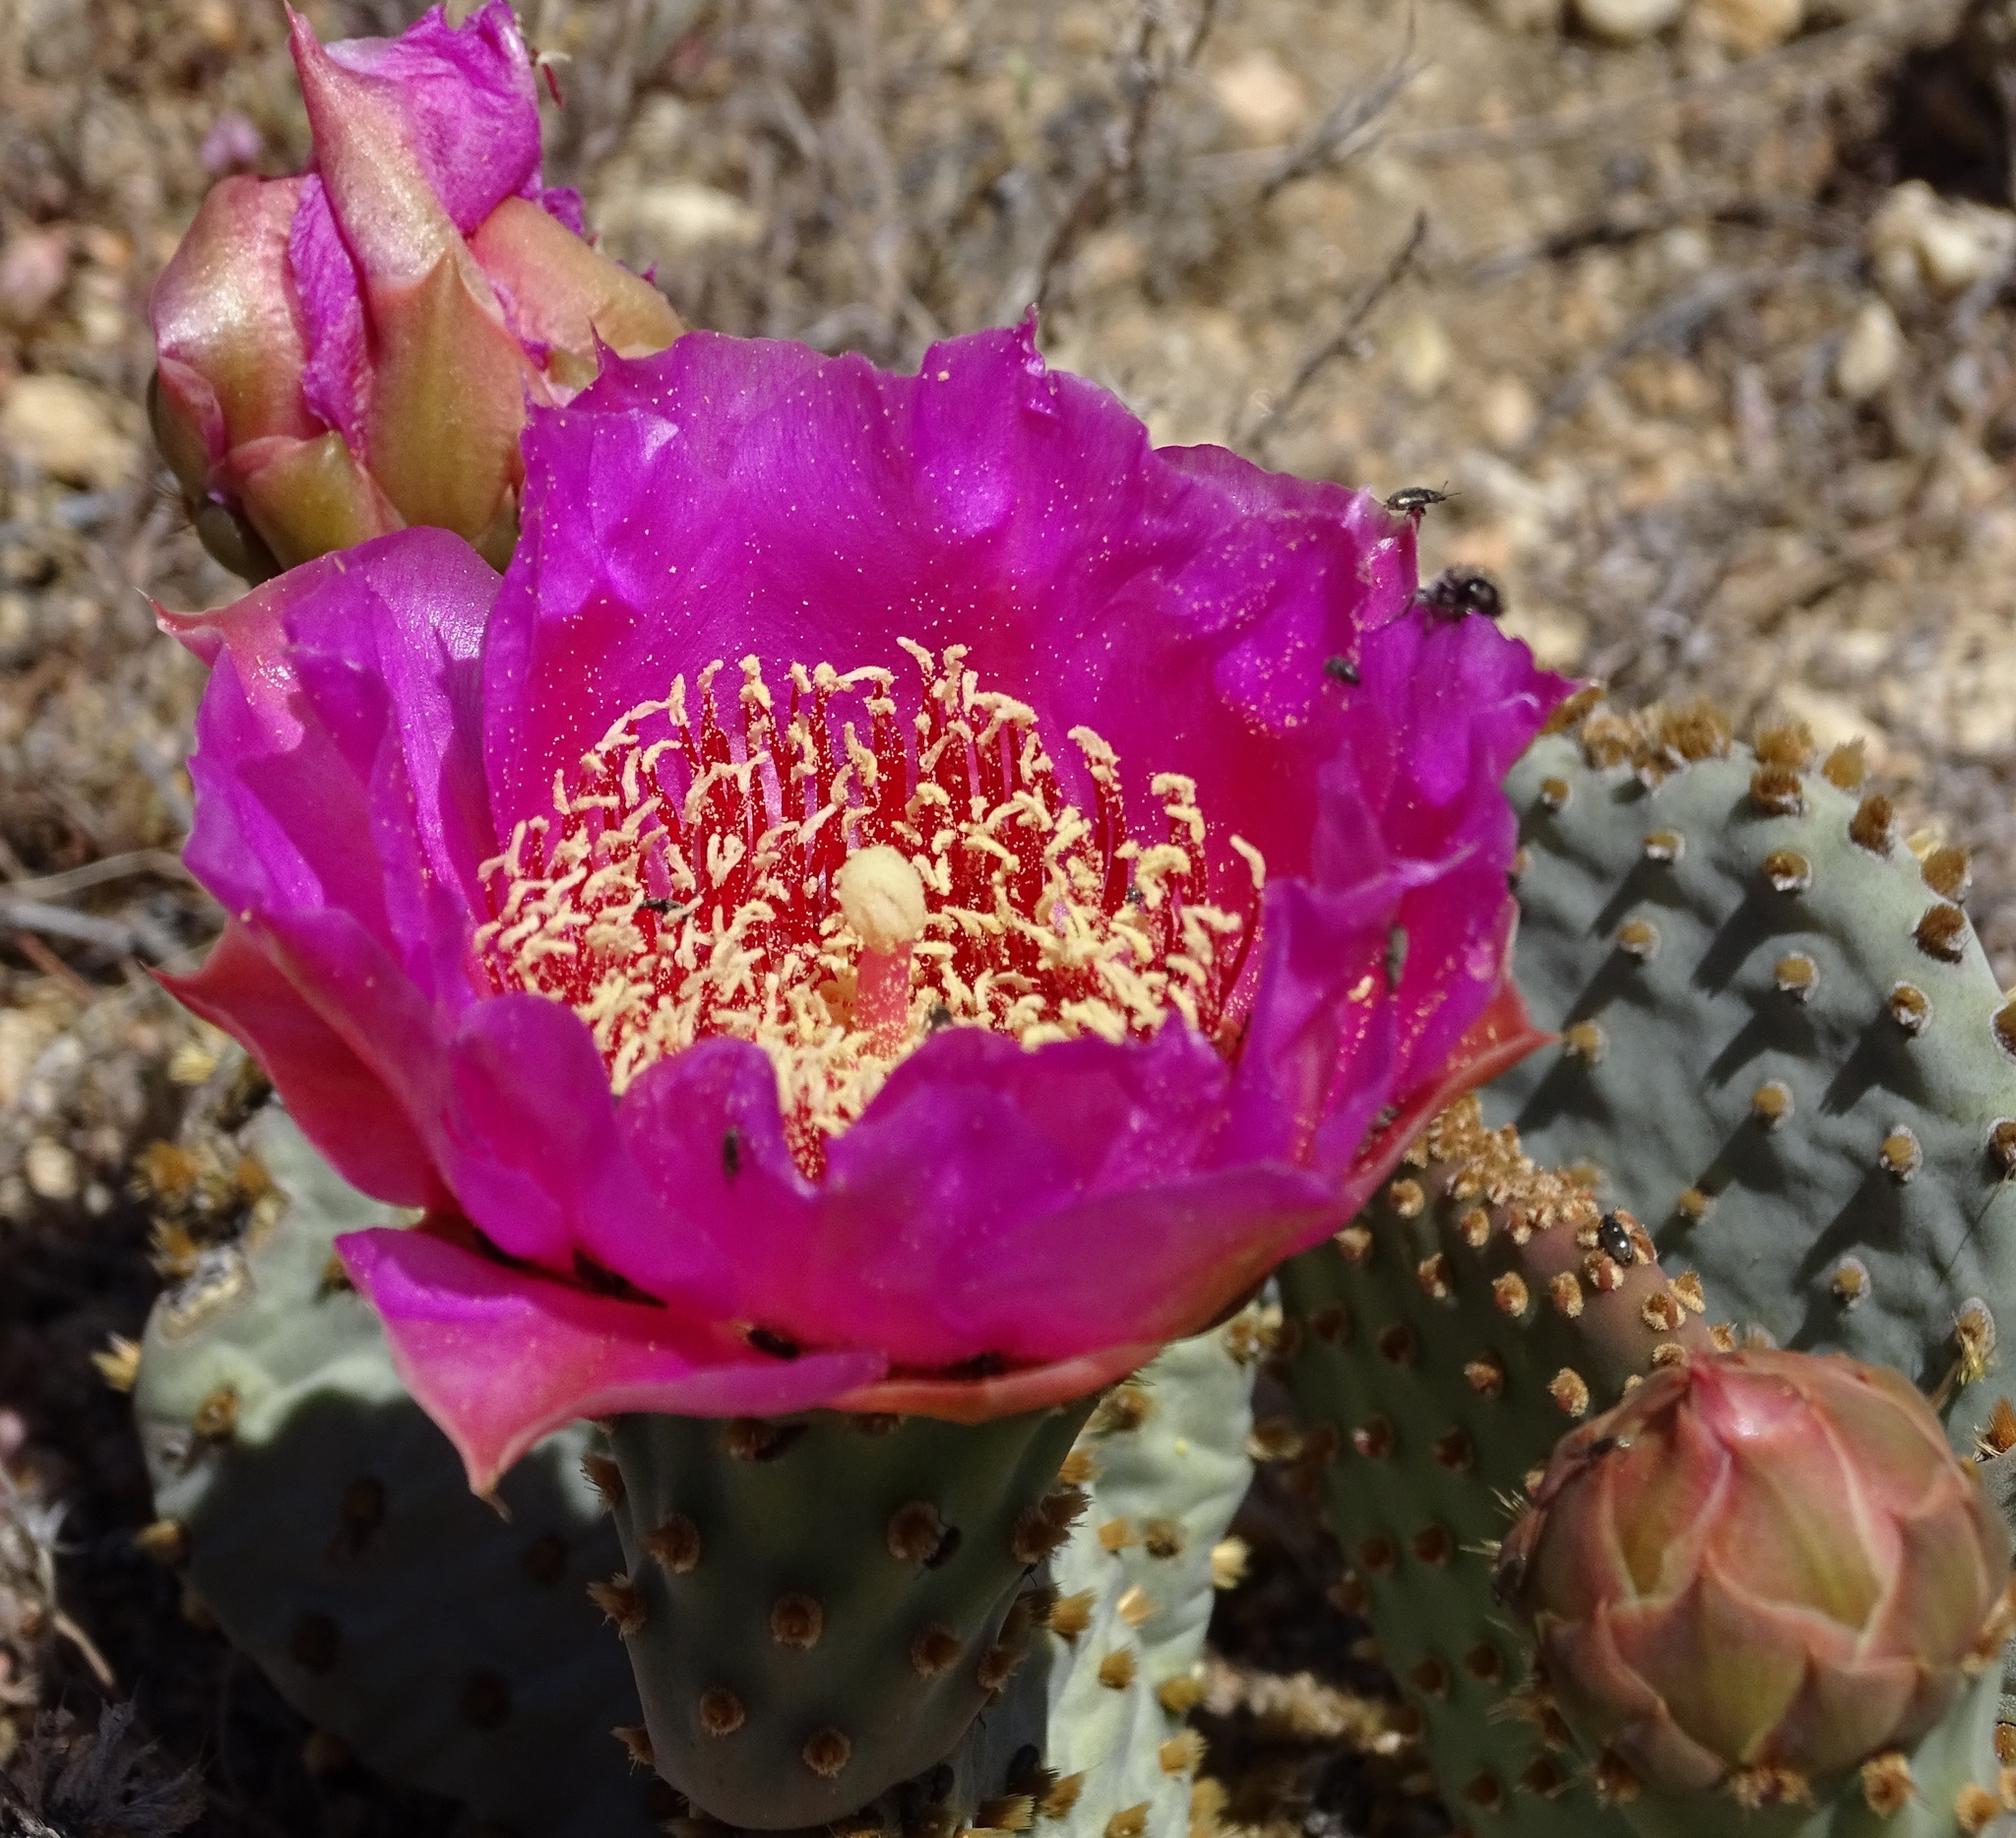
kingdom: Plantae
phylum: Tracheophyta
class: Magnoliopsida
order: Caryophyllales
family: Cactaceae
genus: Opuntia
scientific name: Opuntia basilaris
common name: Beavertail prickly-pear
